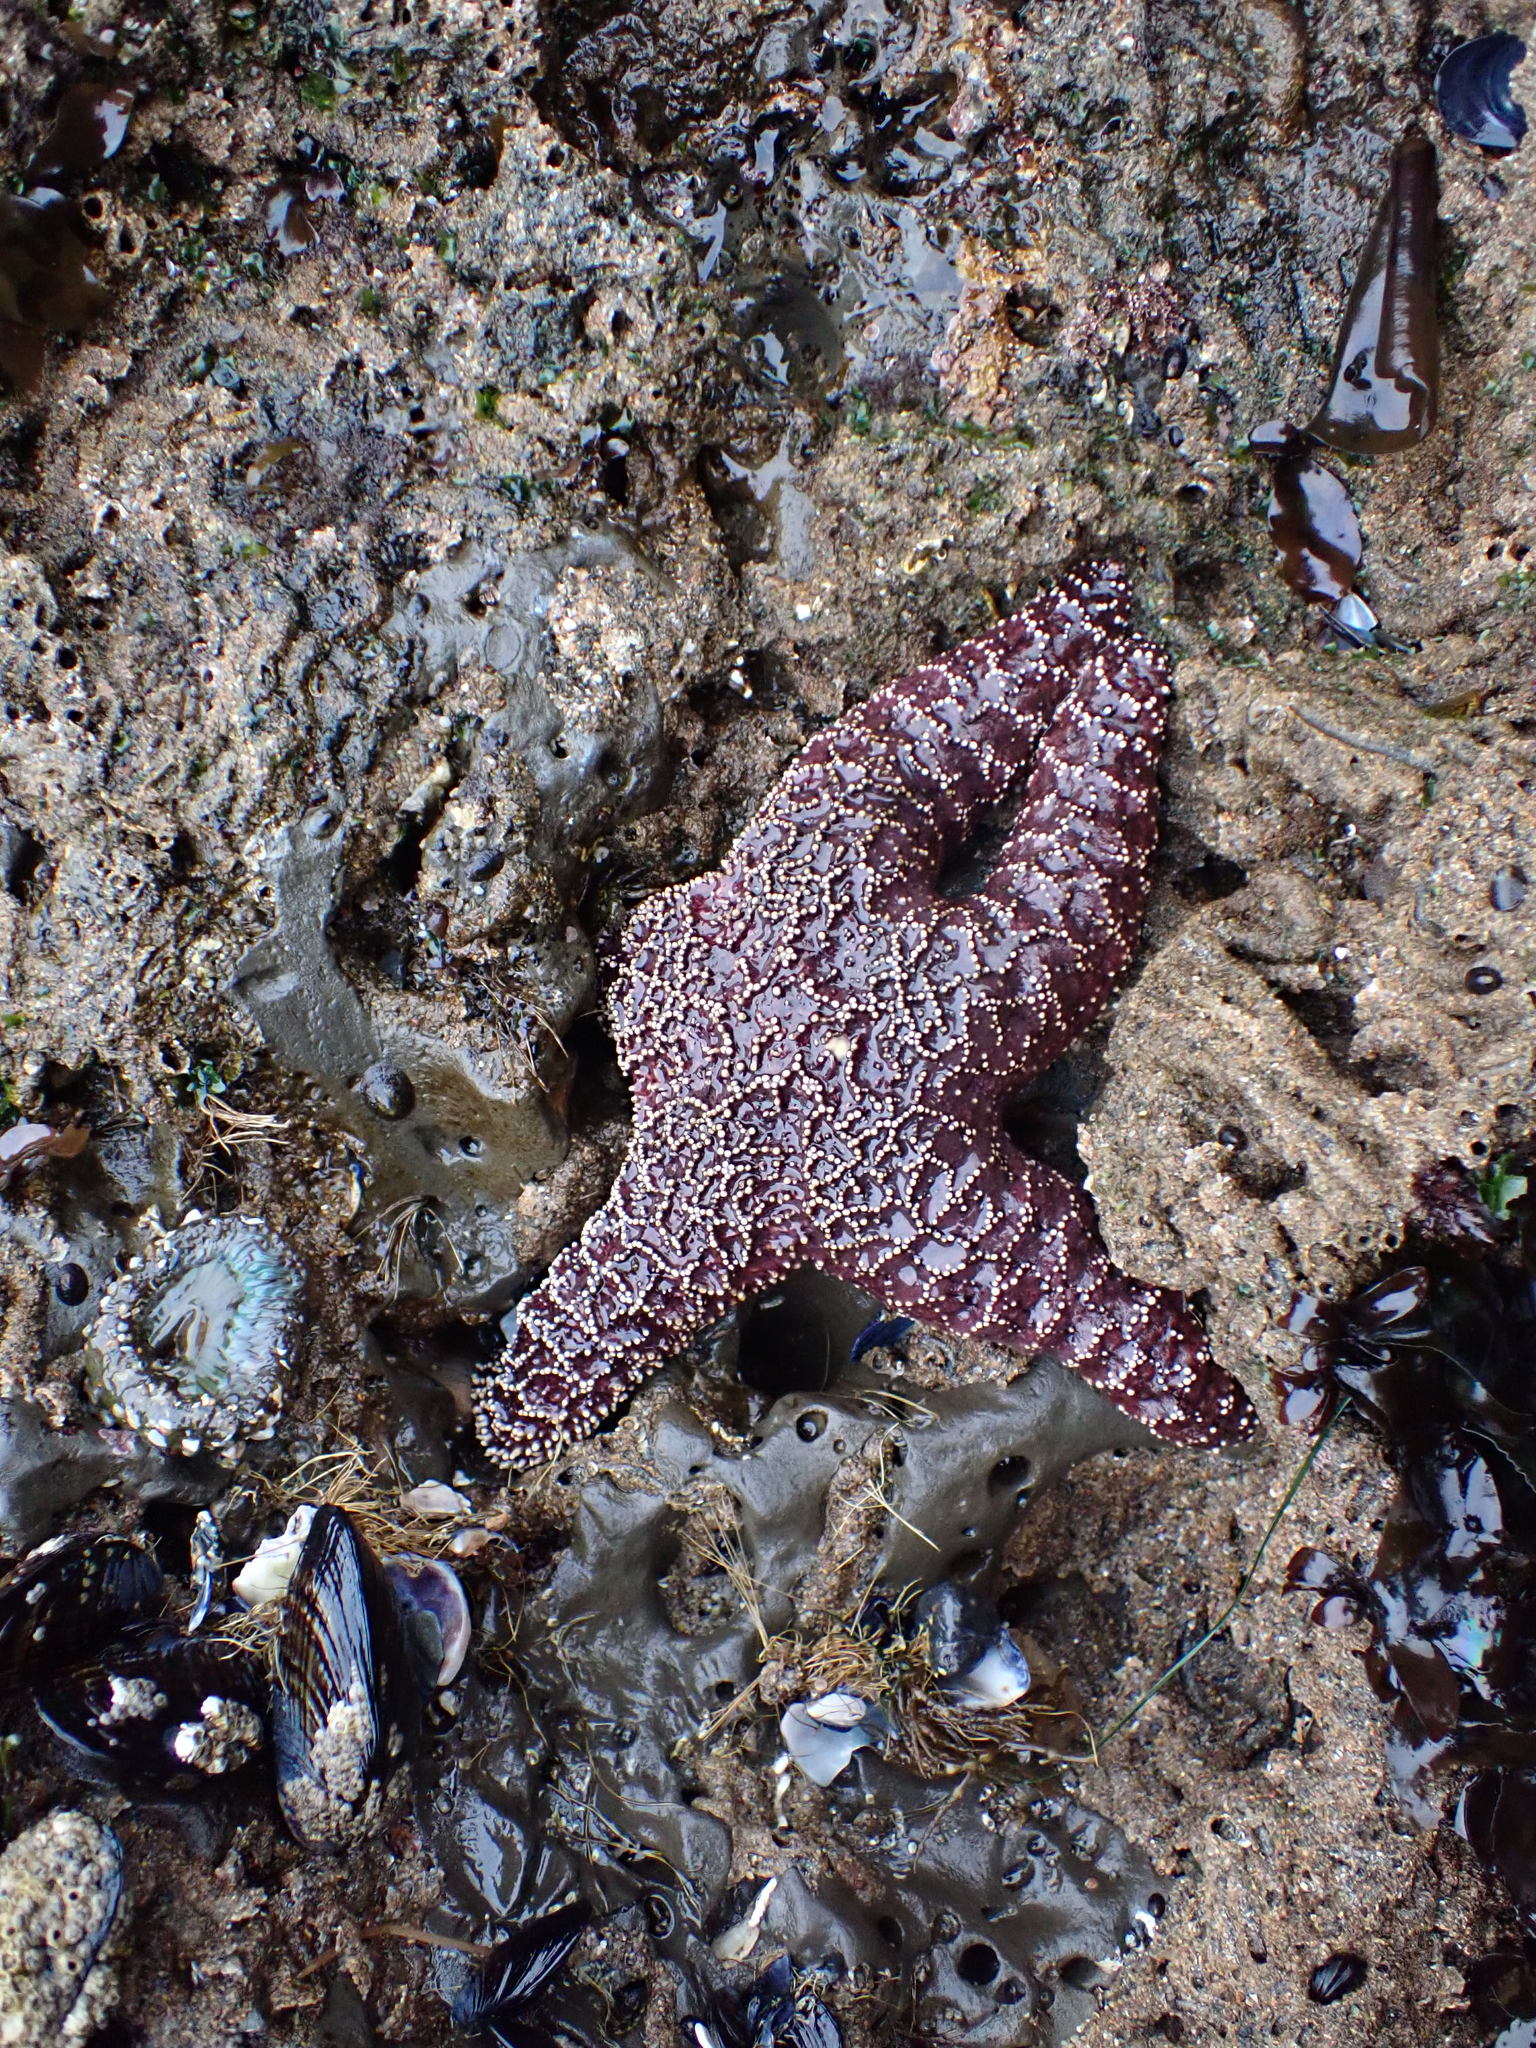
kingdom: Animalia
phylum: Echinodermata
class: Asteroidea
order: Forcipulatida
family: Asteriidae
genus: Pisaster
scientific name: Pisaster ochraceus
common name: Ochre stars
